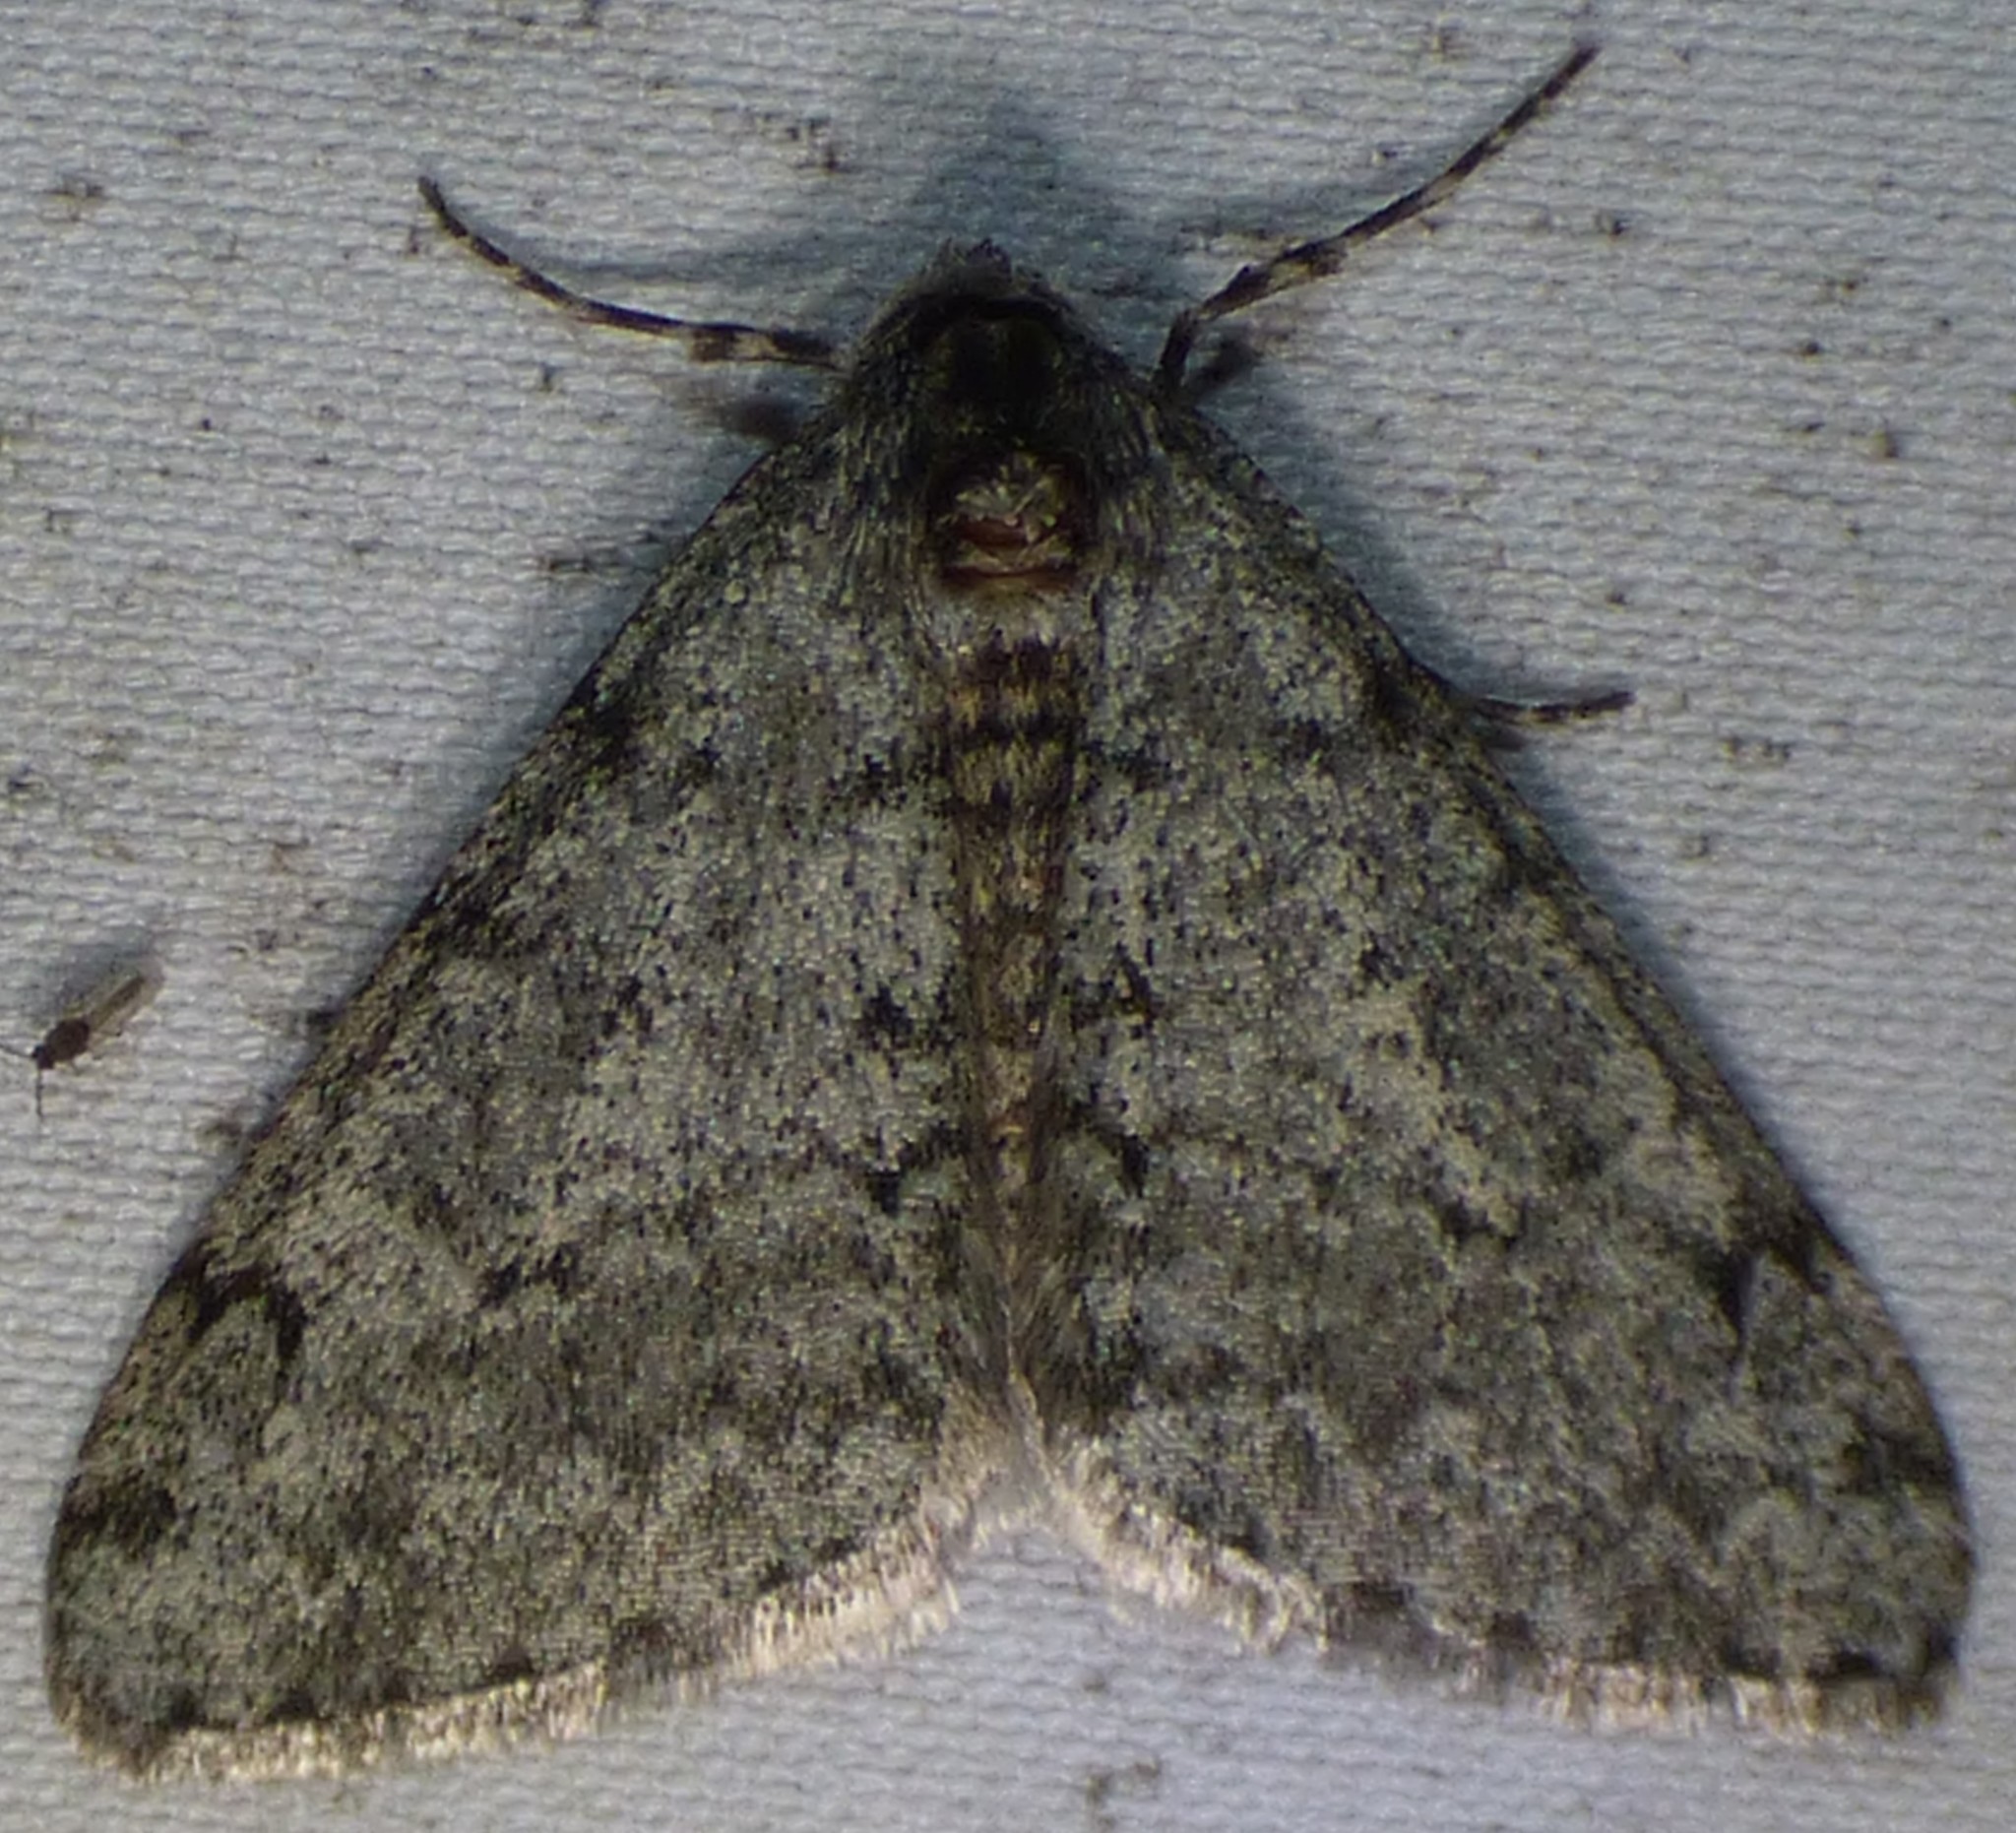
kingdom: Animalia
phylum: Arthropoda
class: Insecta
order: Lepidoptera
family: Geometridae
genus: Phigalia
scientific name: Phigalia strigataria
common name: Small phigalia
